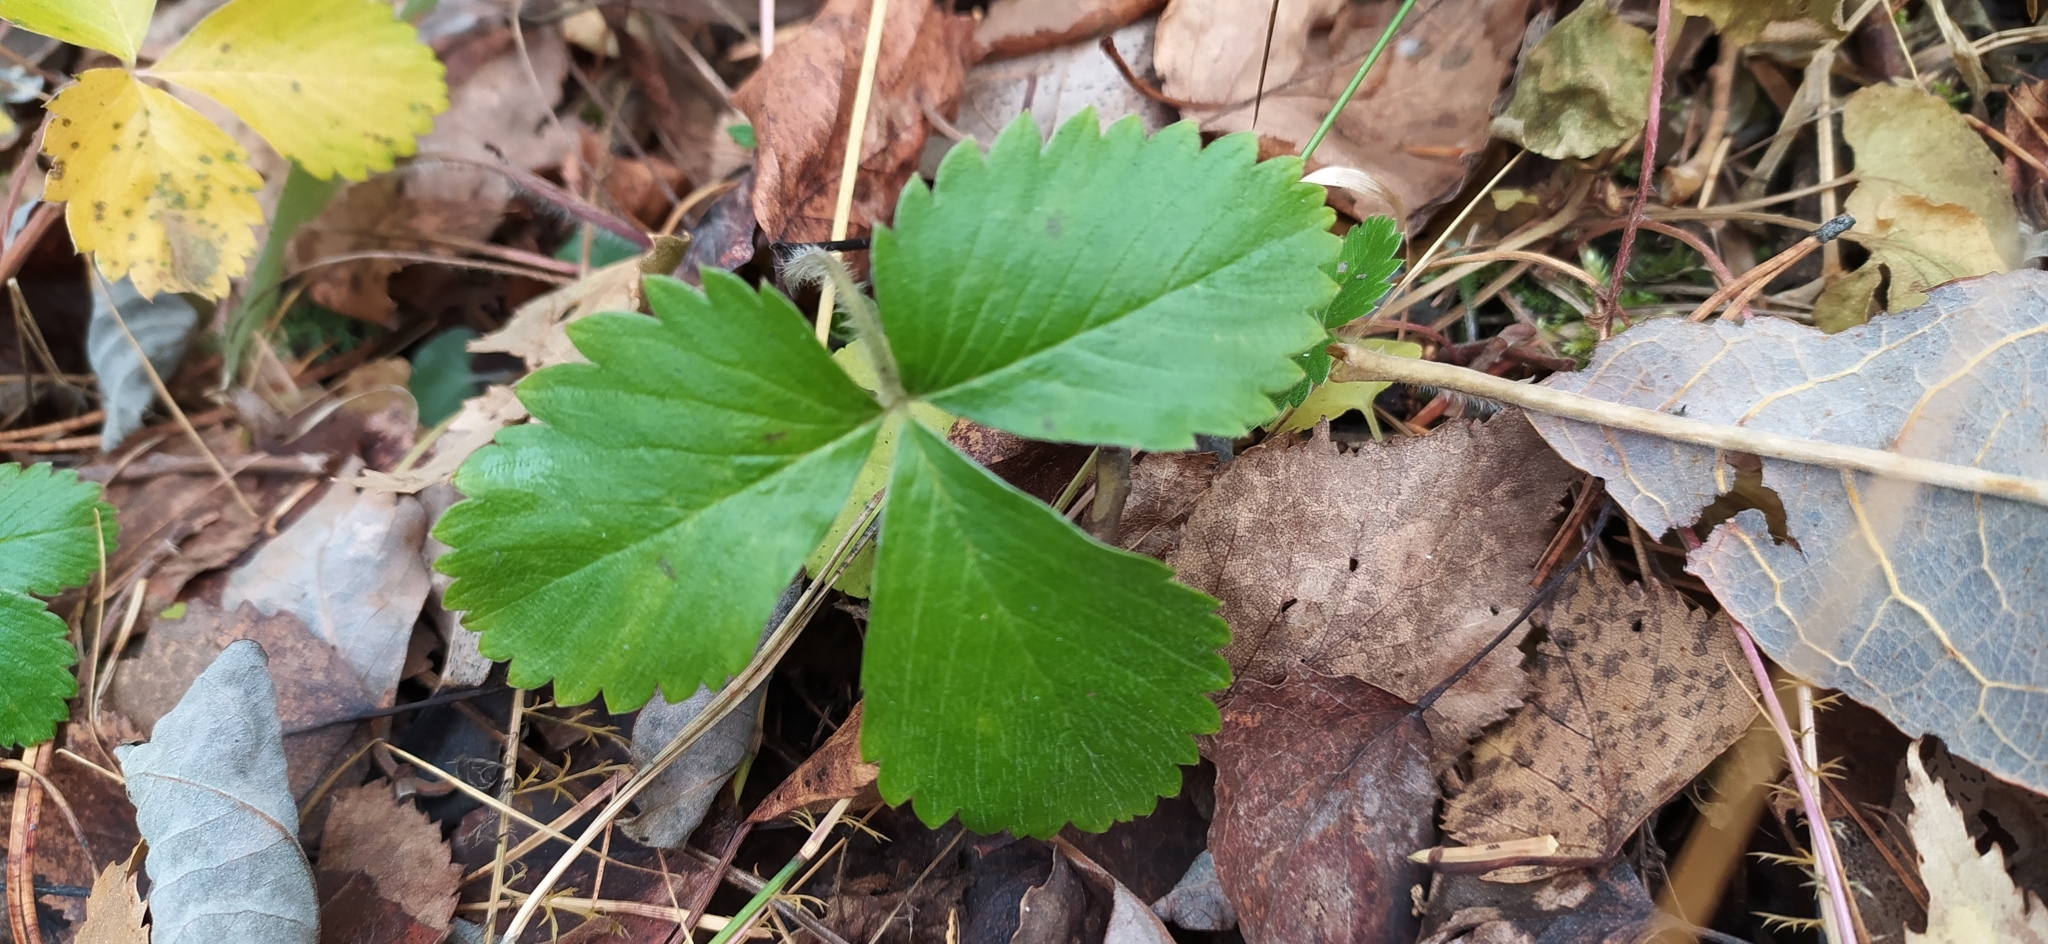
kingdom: Plantae
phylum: Tracheophyta
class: Magnoliopsida
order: Rosales
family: Rosaceae
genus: Fragaria
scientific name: Fragaria vesca
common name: Wild strawberry
